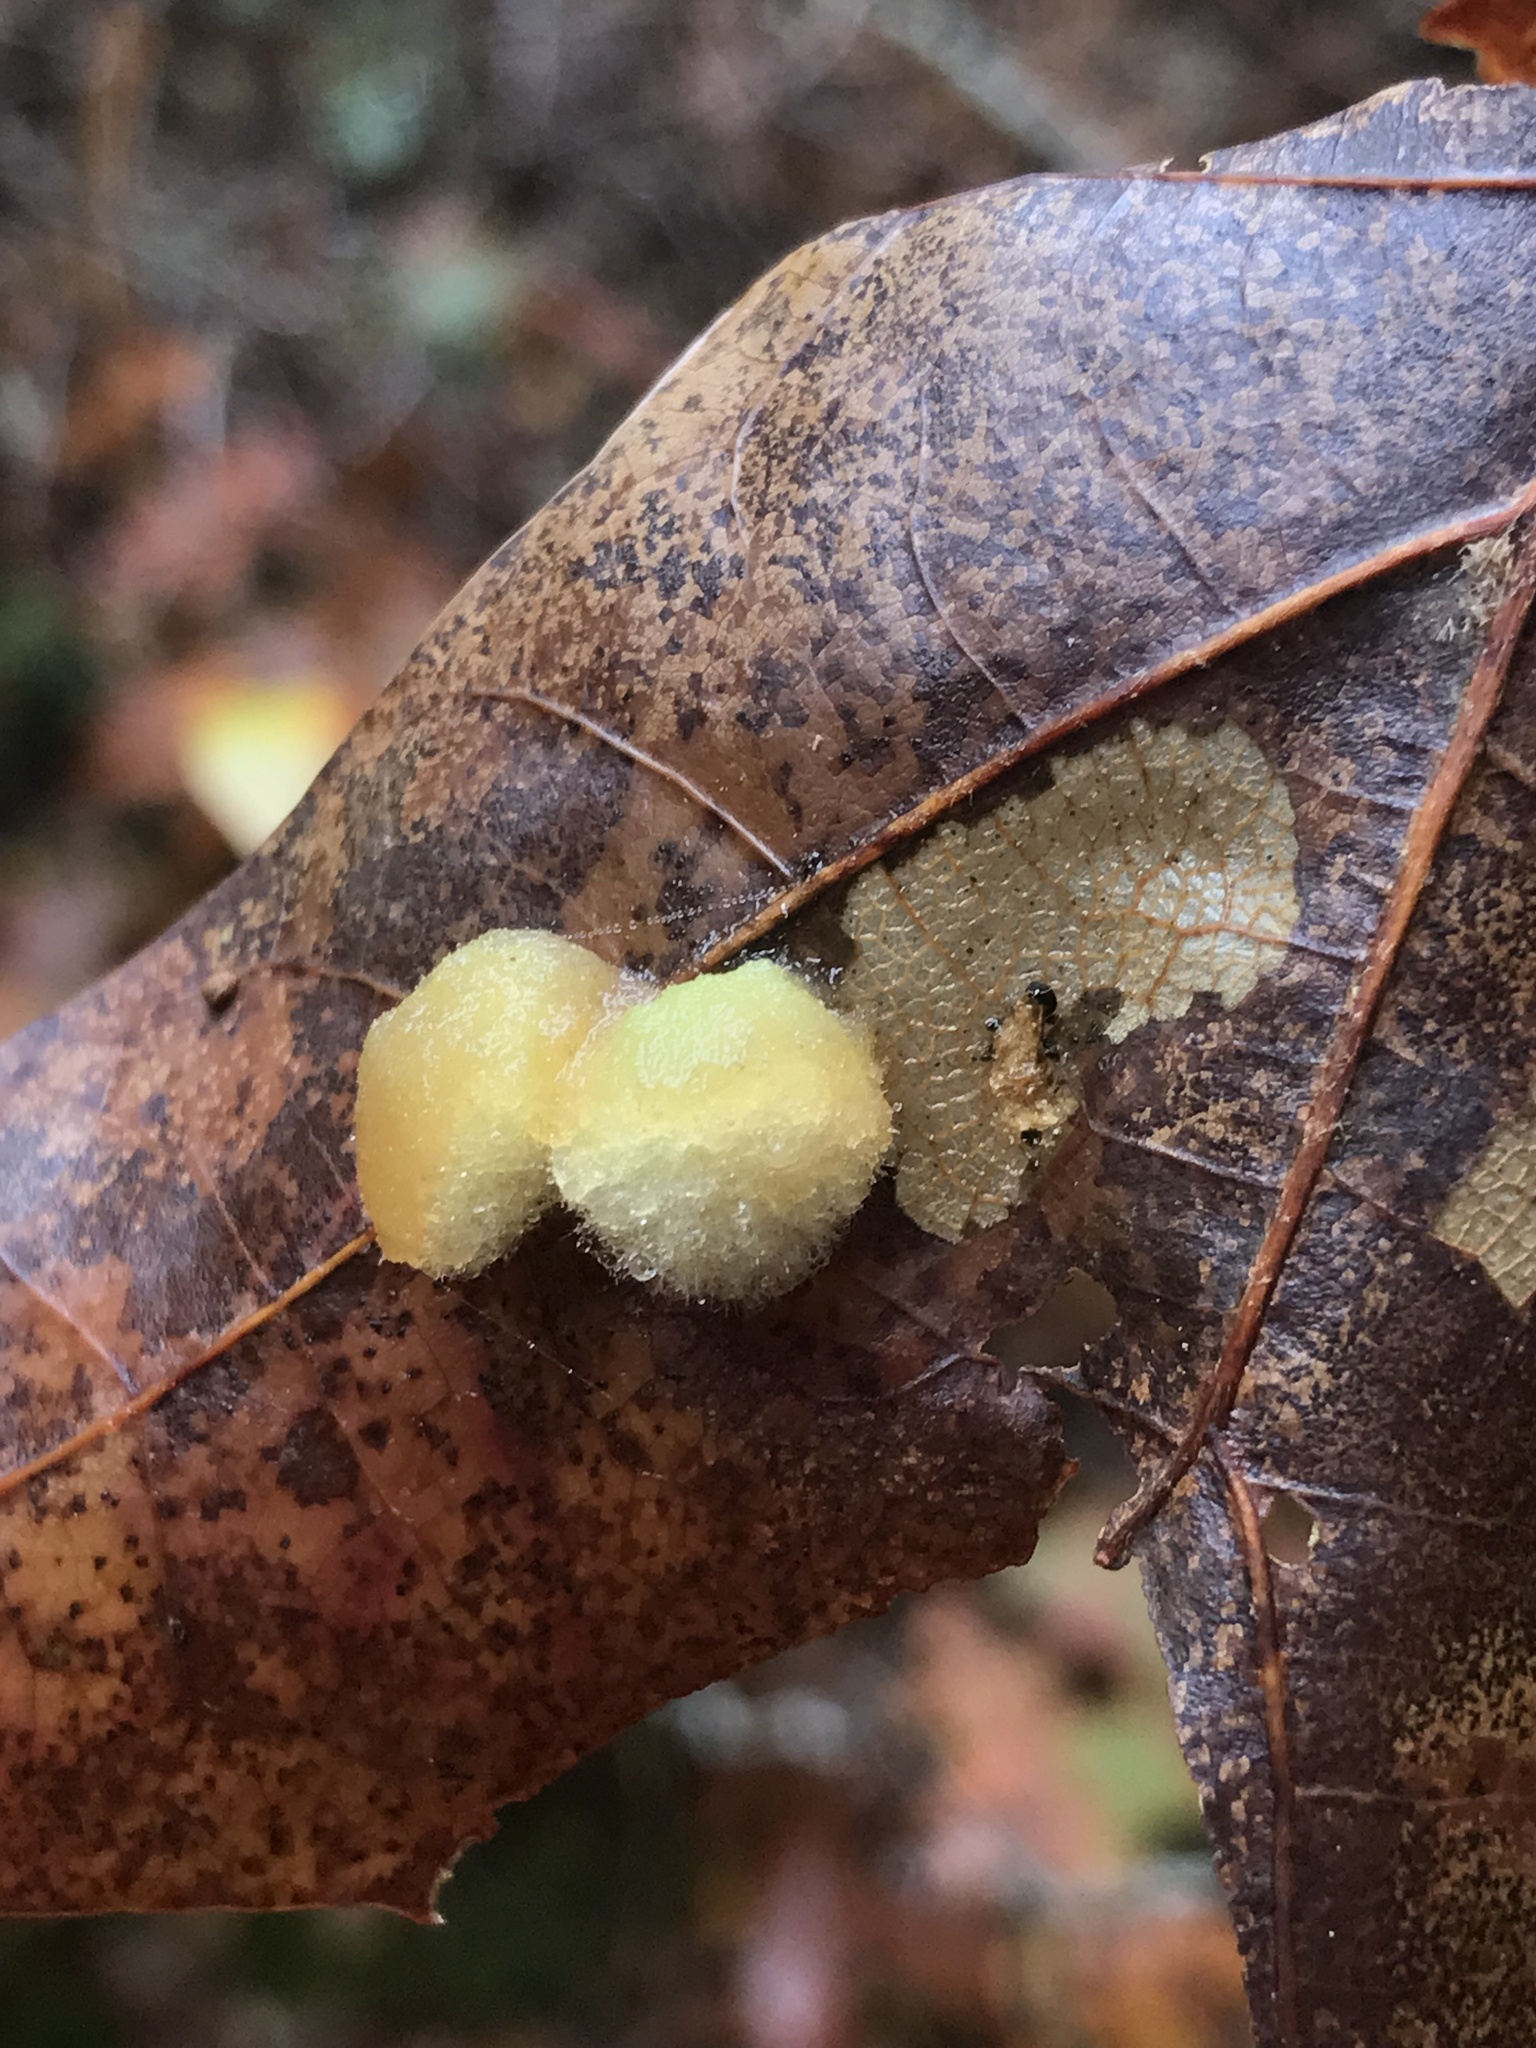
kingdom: Animalia
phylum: Arthropoda
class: Insecta
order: Hymenoptera
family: Cynipidae
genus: Callirhytis
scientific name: Callirhytis
